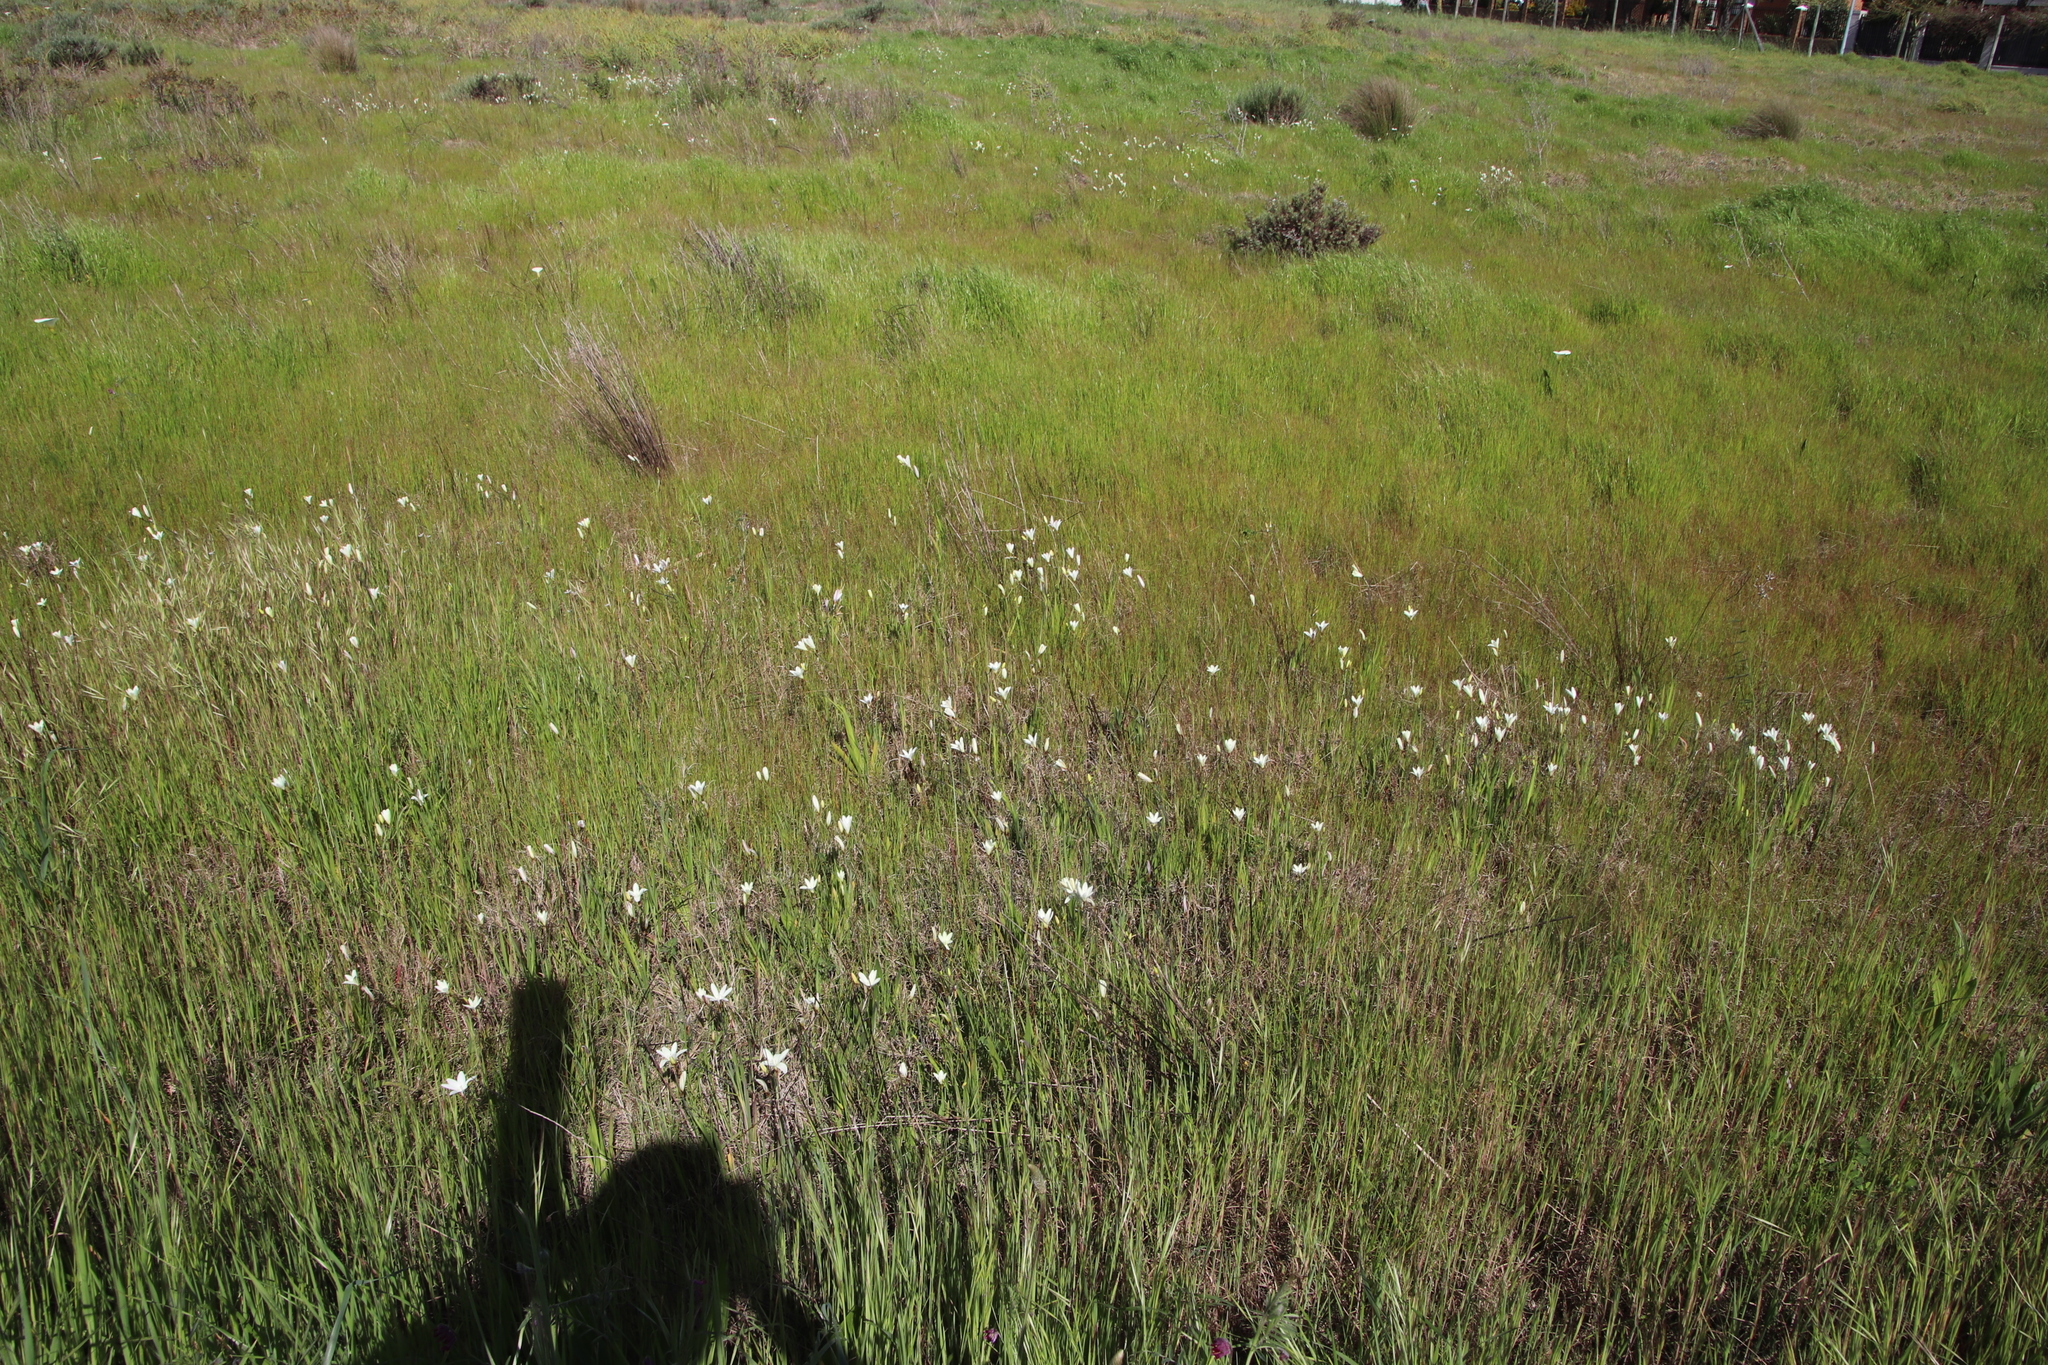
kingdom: Plantae
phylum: Tracheophyta
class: Liliopsida
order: Asparagales
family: Iridaceae
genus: Sparaxis
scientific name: Sparaxis bulbifera
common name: Harlequin-flower
